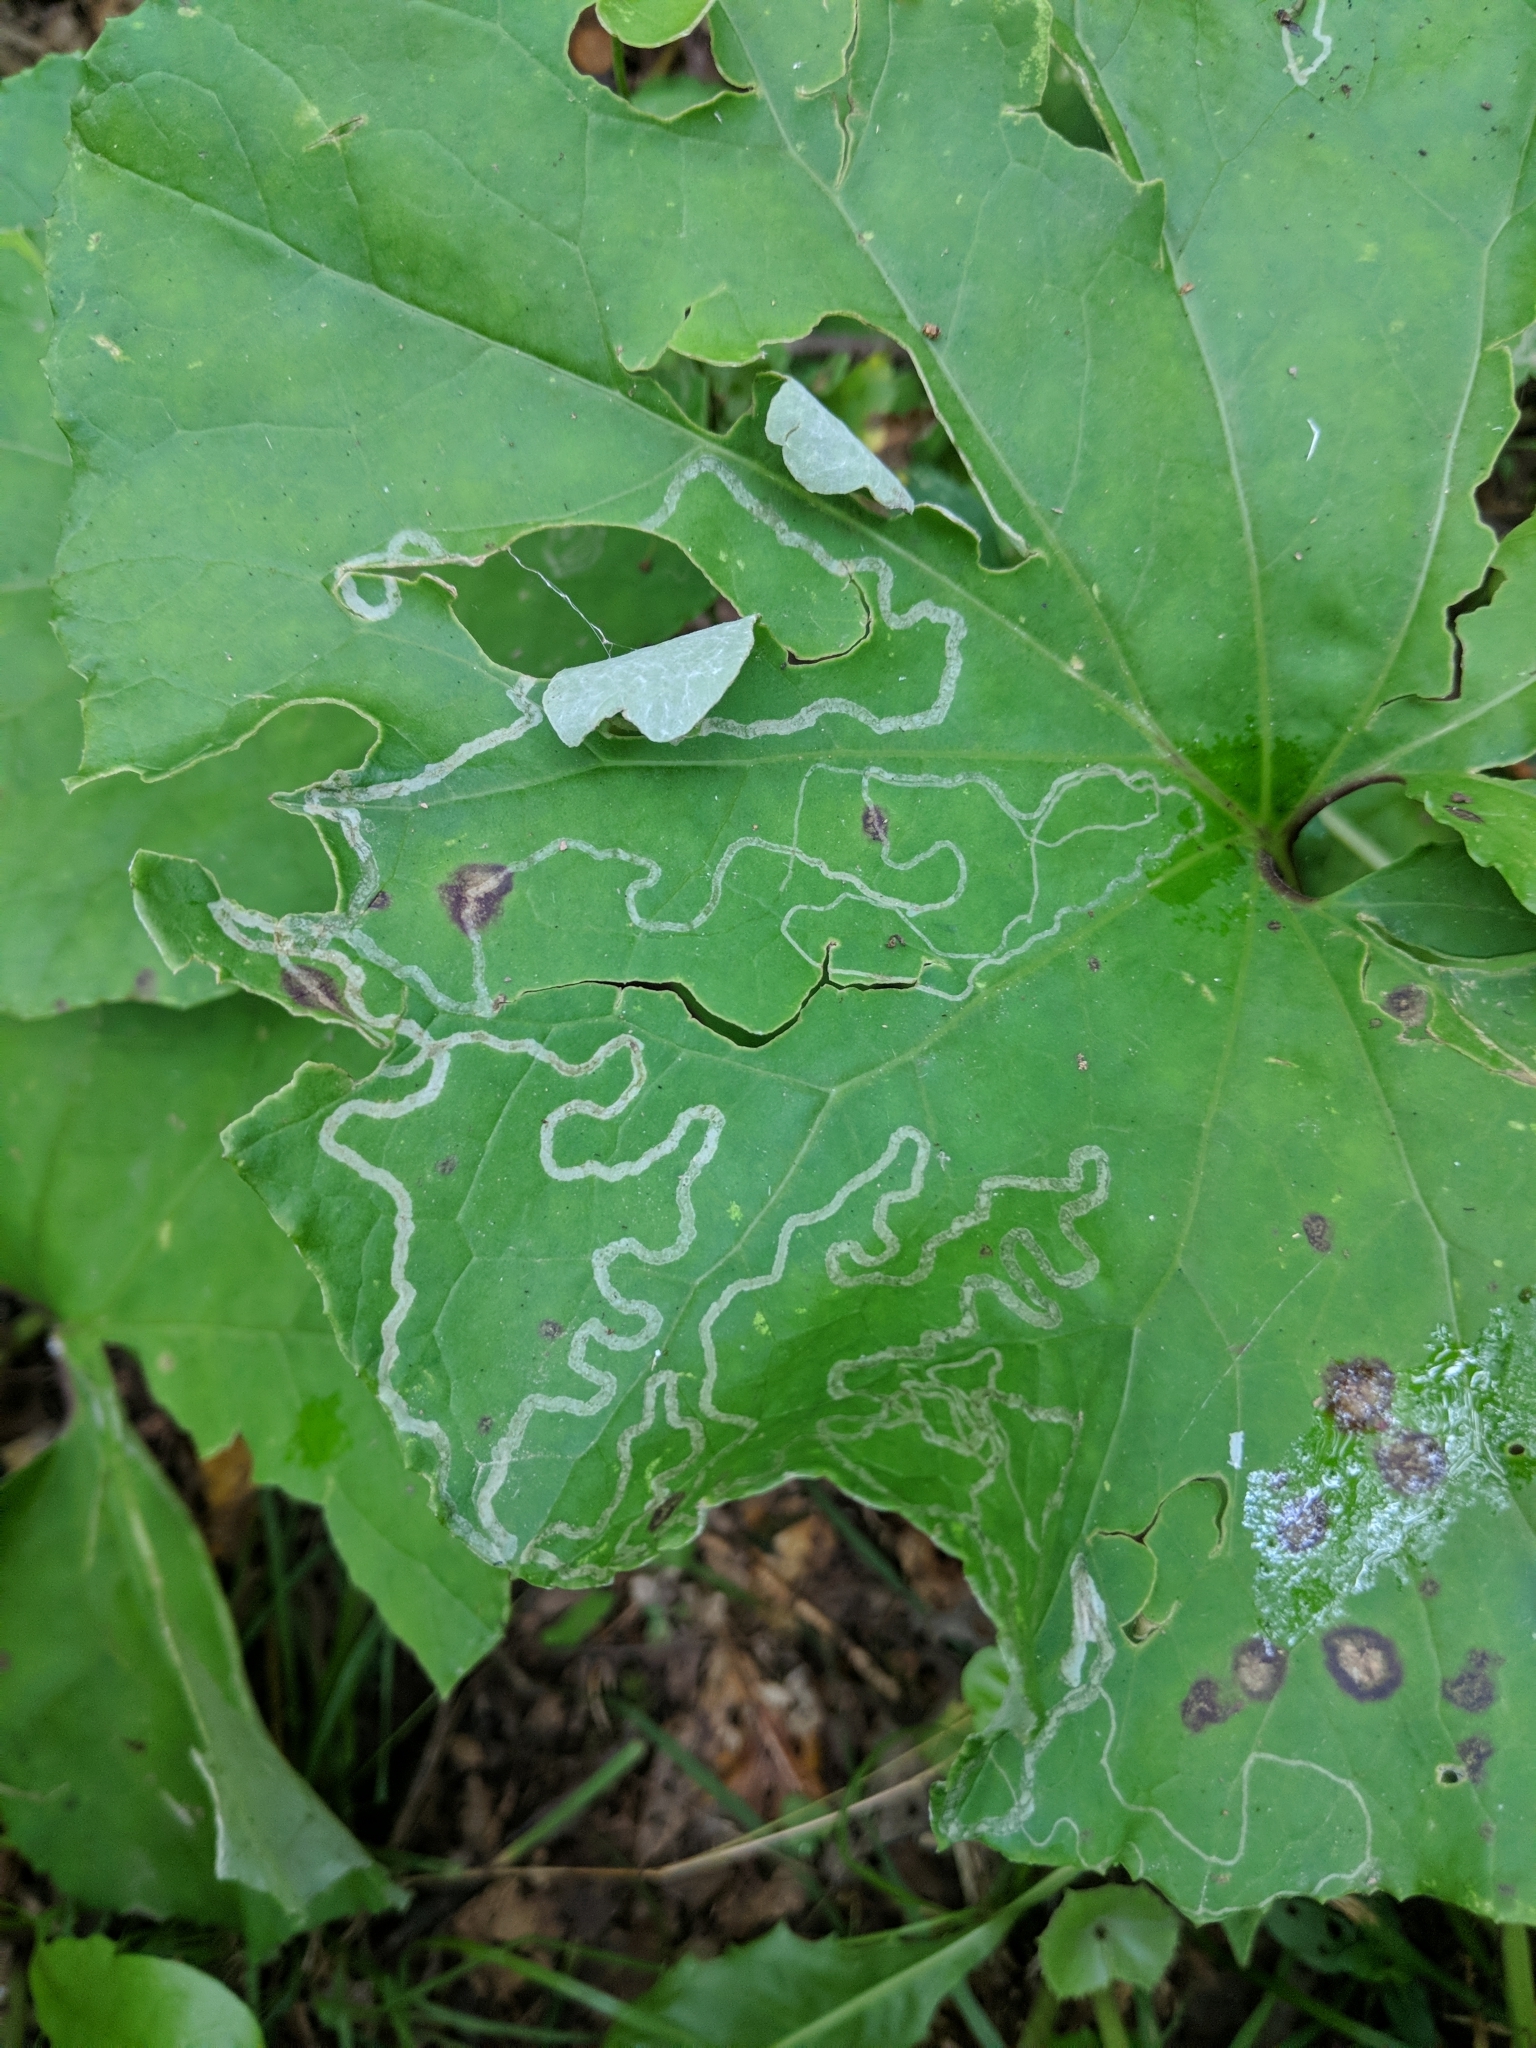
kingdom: Animalia
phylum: Arthropoda
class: Insecta
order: Lepidoptera
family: Gracillariidae
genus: Phyllocnistis
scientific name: Phyllocnistis insignis
